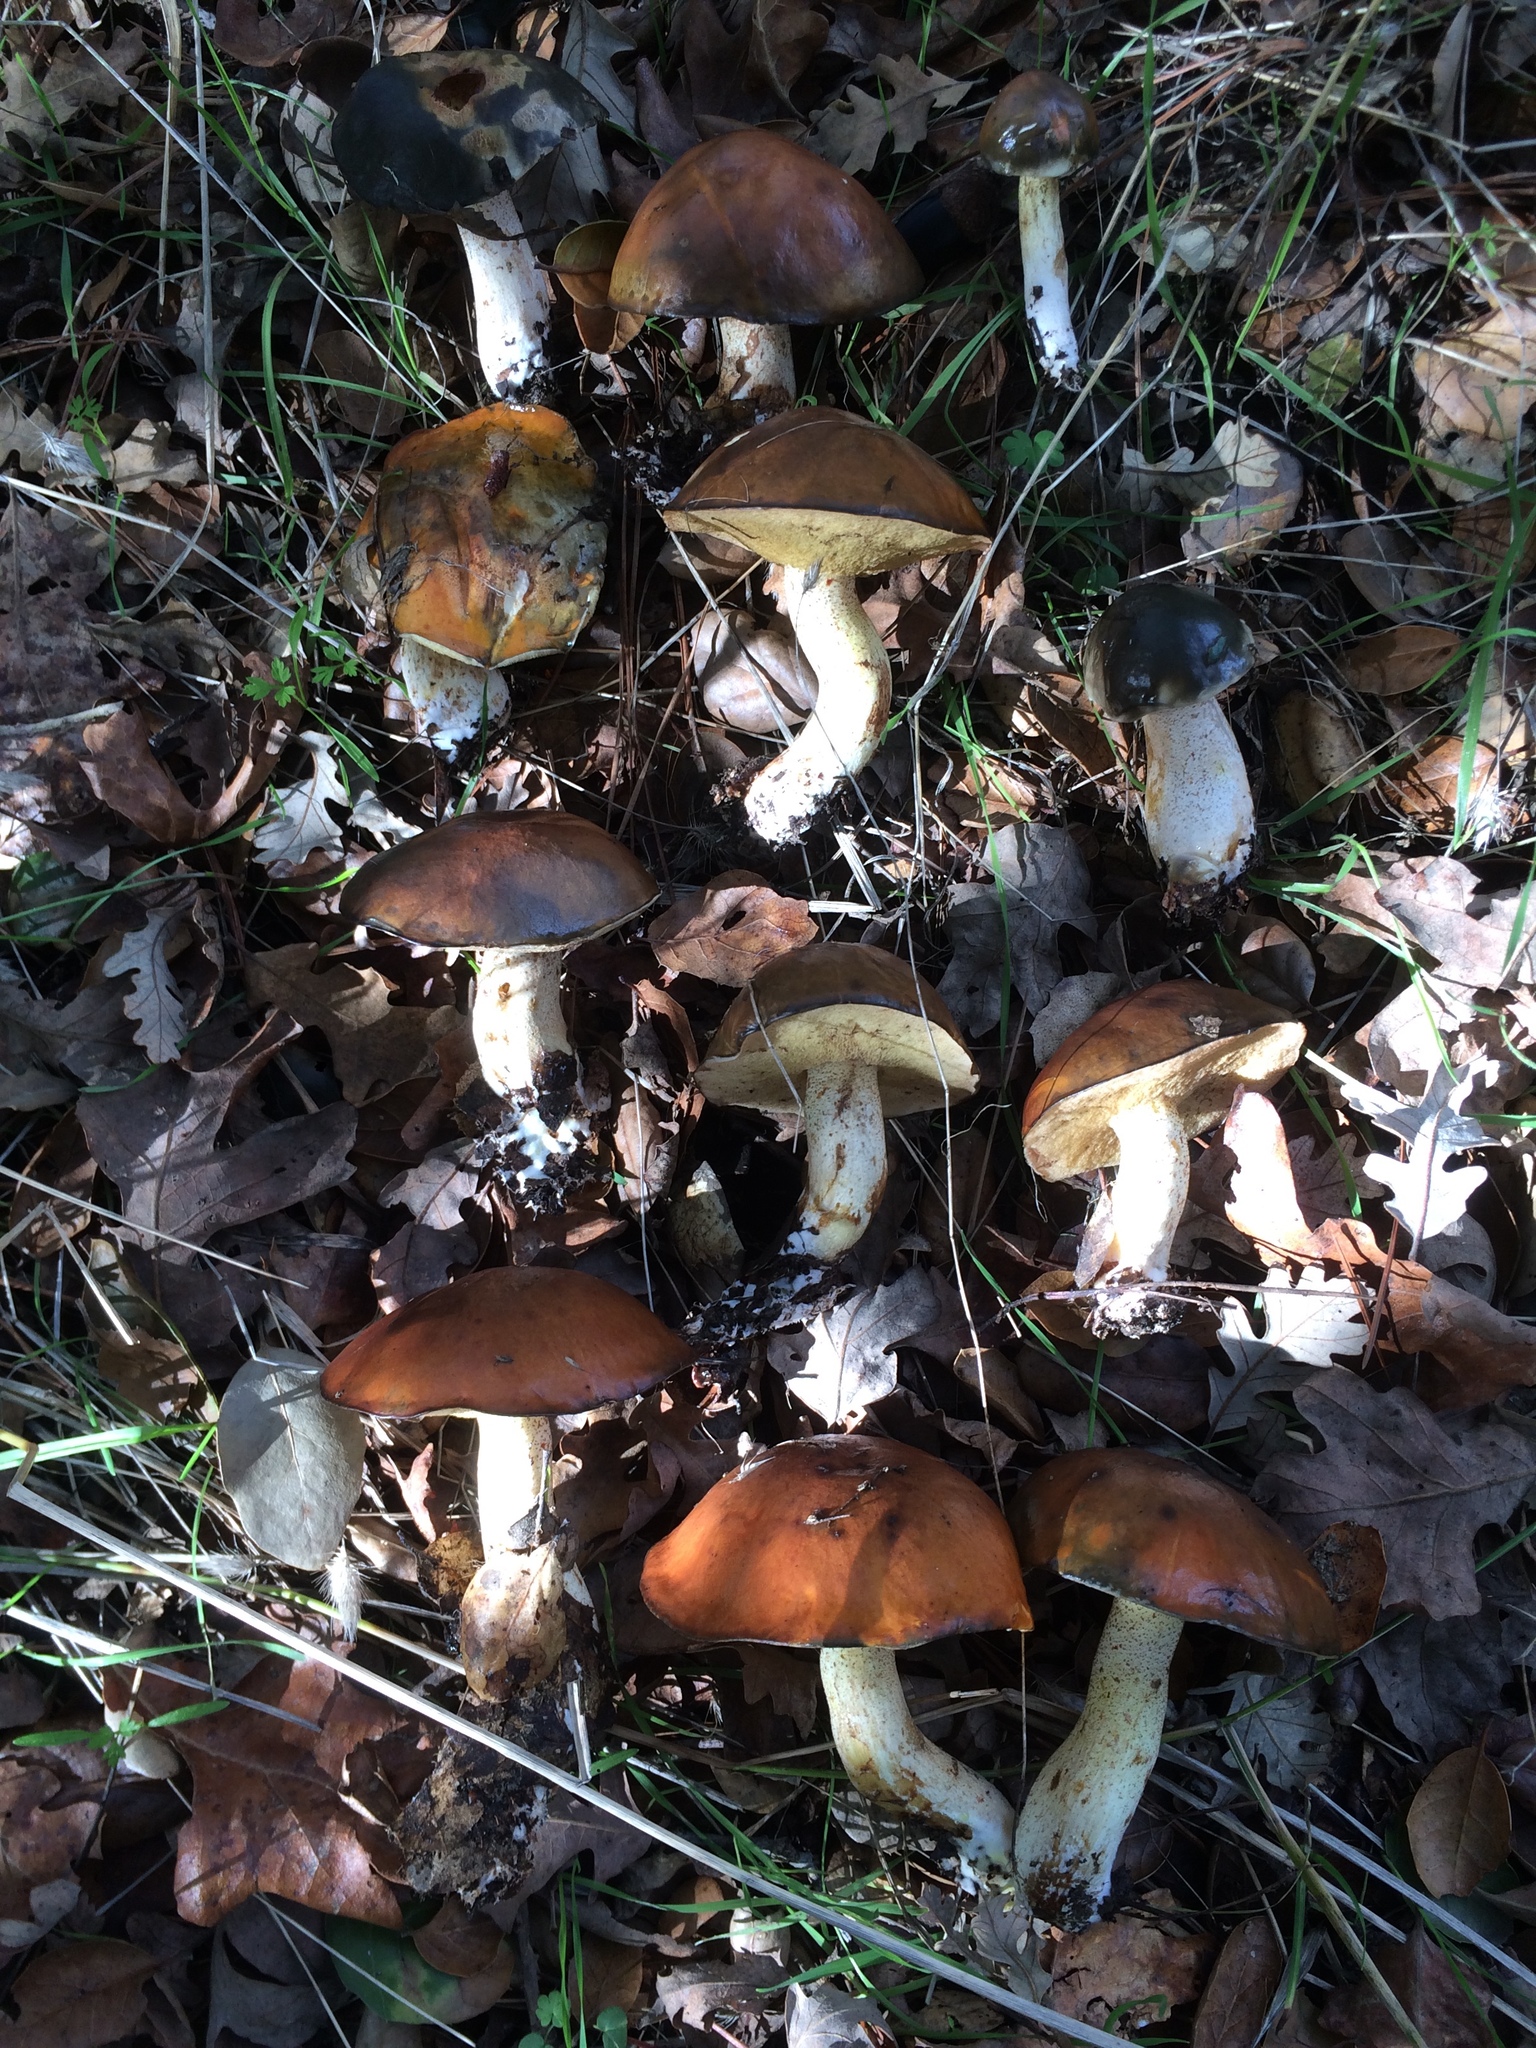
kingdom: Fungi
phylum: Basidiomycota
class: Agaricomycetes
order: Boletales
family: Suillaceae
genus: Suillus
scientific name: Suillus pungens
